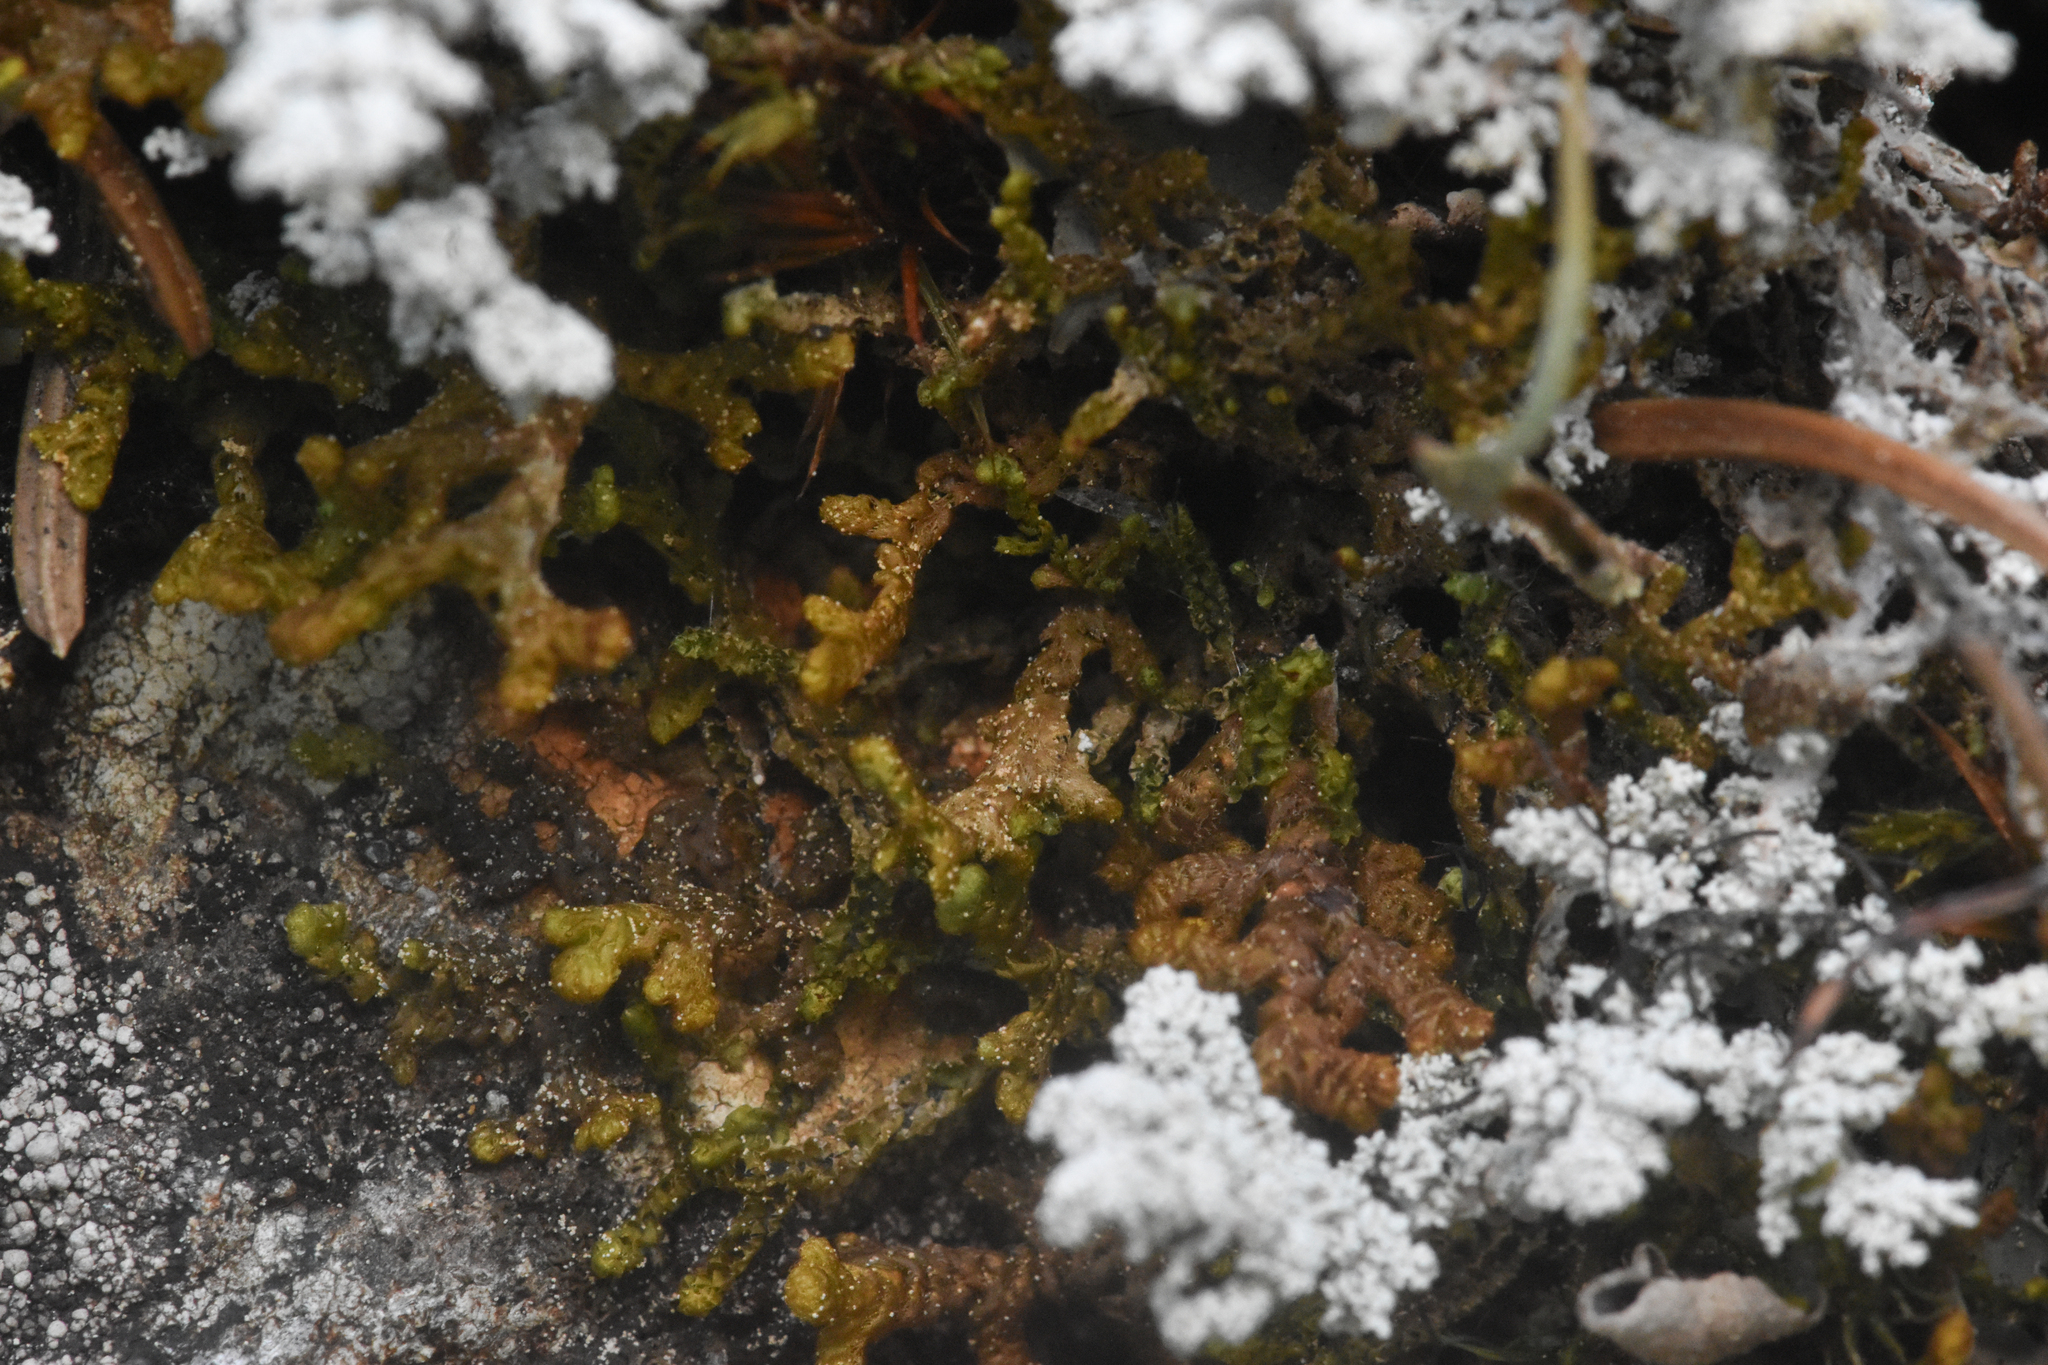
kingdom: Plantae
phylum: Marchantiophyta
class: Jungermanniopsida
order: Ptilidiales
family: Ptilidiaceae
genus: Ptilidium
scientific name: Ptilidium ciliare
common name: Ciliate fringewort
